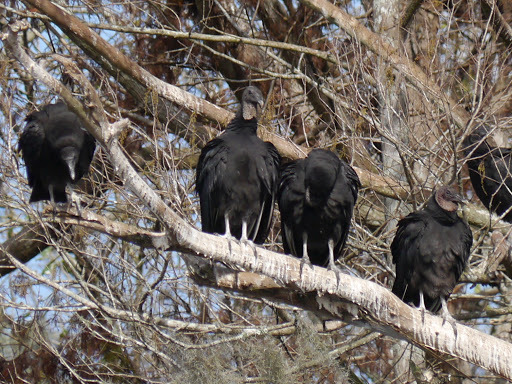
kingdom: Animalia
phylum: Chordata
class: Aves
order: Accipitriformes
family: Cathartidae
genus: Coragyps
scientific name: Coragyps atratus
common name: Black vulture
